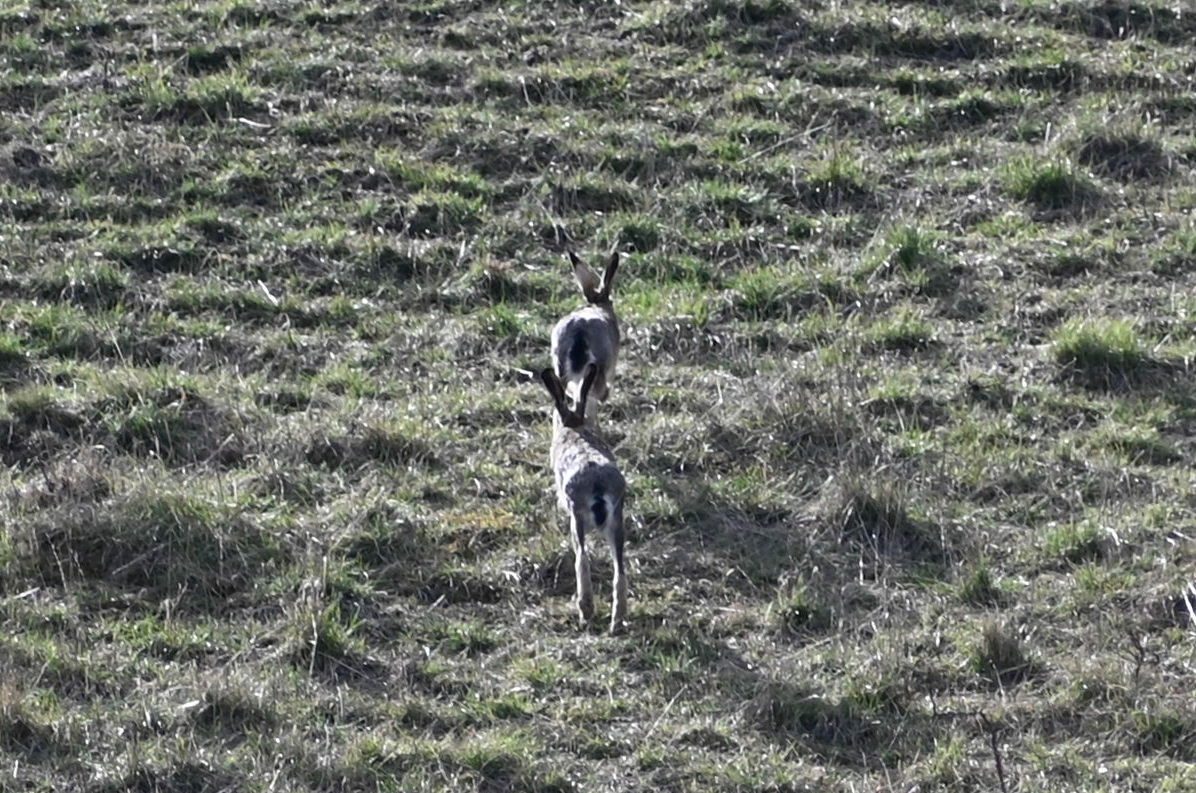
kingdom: Animalia
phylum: Chordata
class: Mammalia
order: Lagomorpha
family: Leporidae
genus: Lepus
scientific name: Lepus europaeus
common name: European hare
